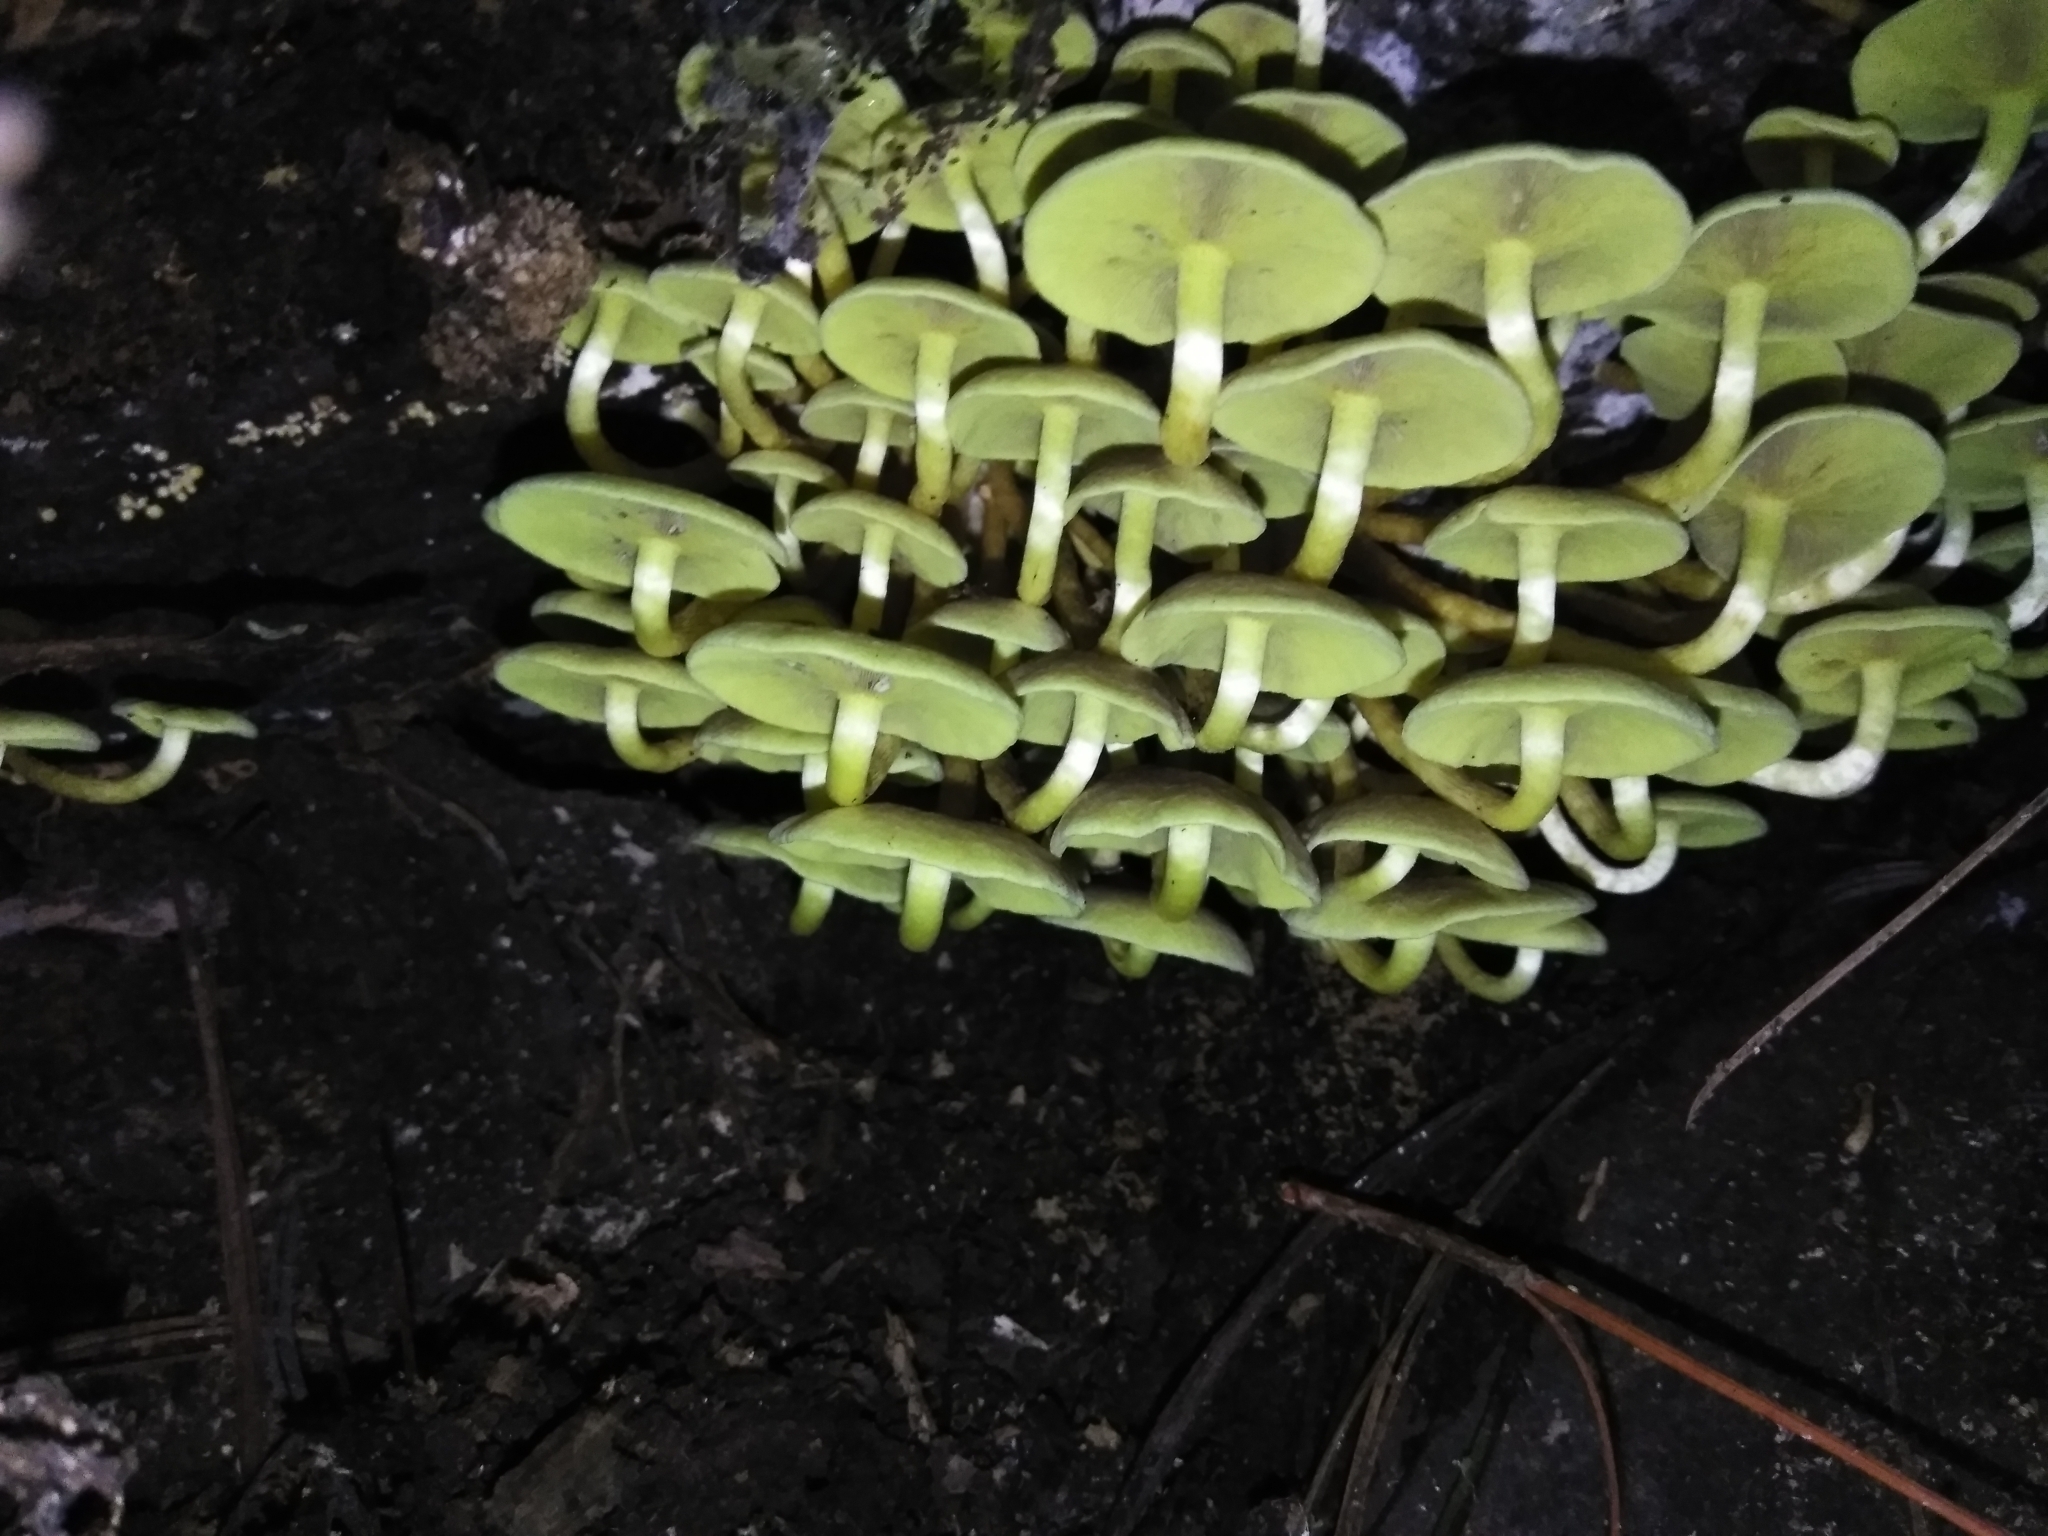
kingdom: Fungi
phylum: Basidiomycota
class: Agaricomycetes
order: Agaricales
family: Strophariaceae
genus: Hypholoma
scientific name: Hypholoma fasciculare
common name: Sulphur tuft
